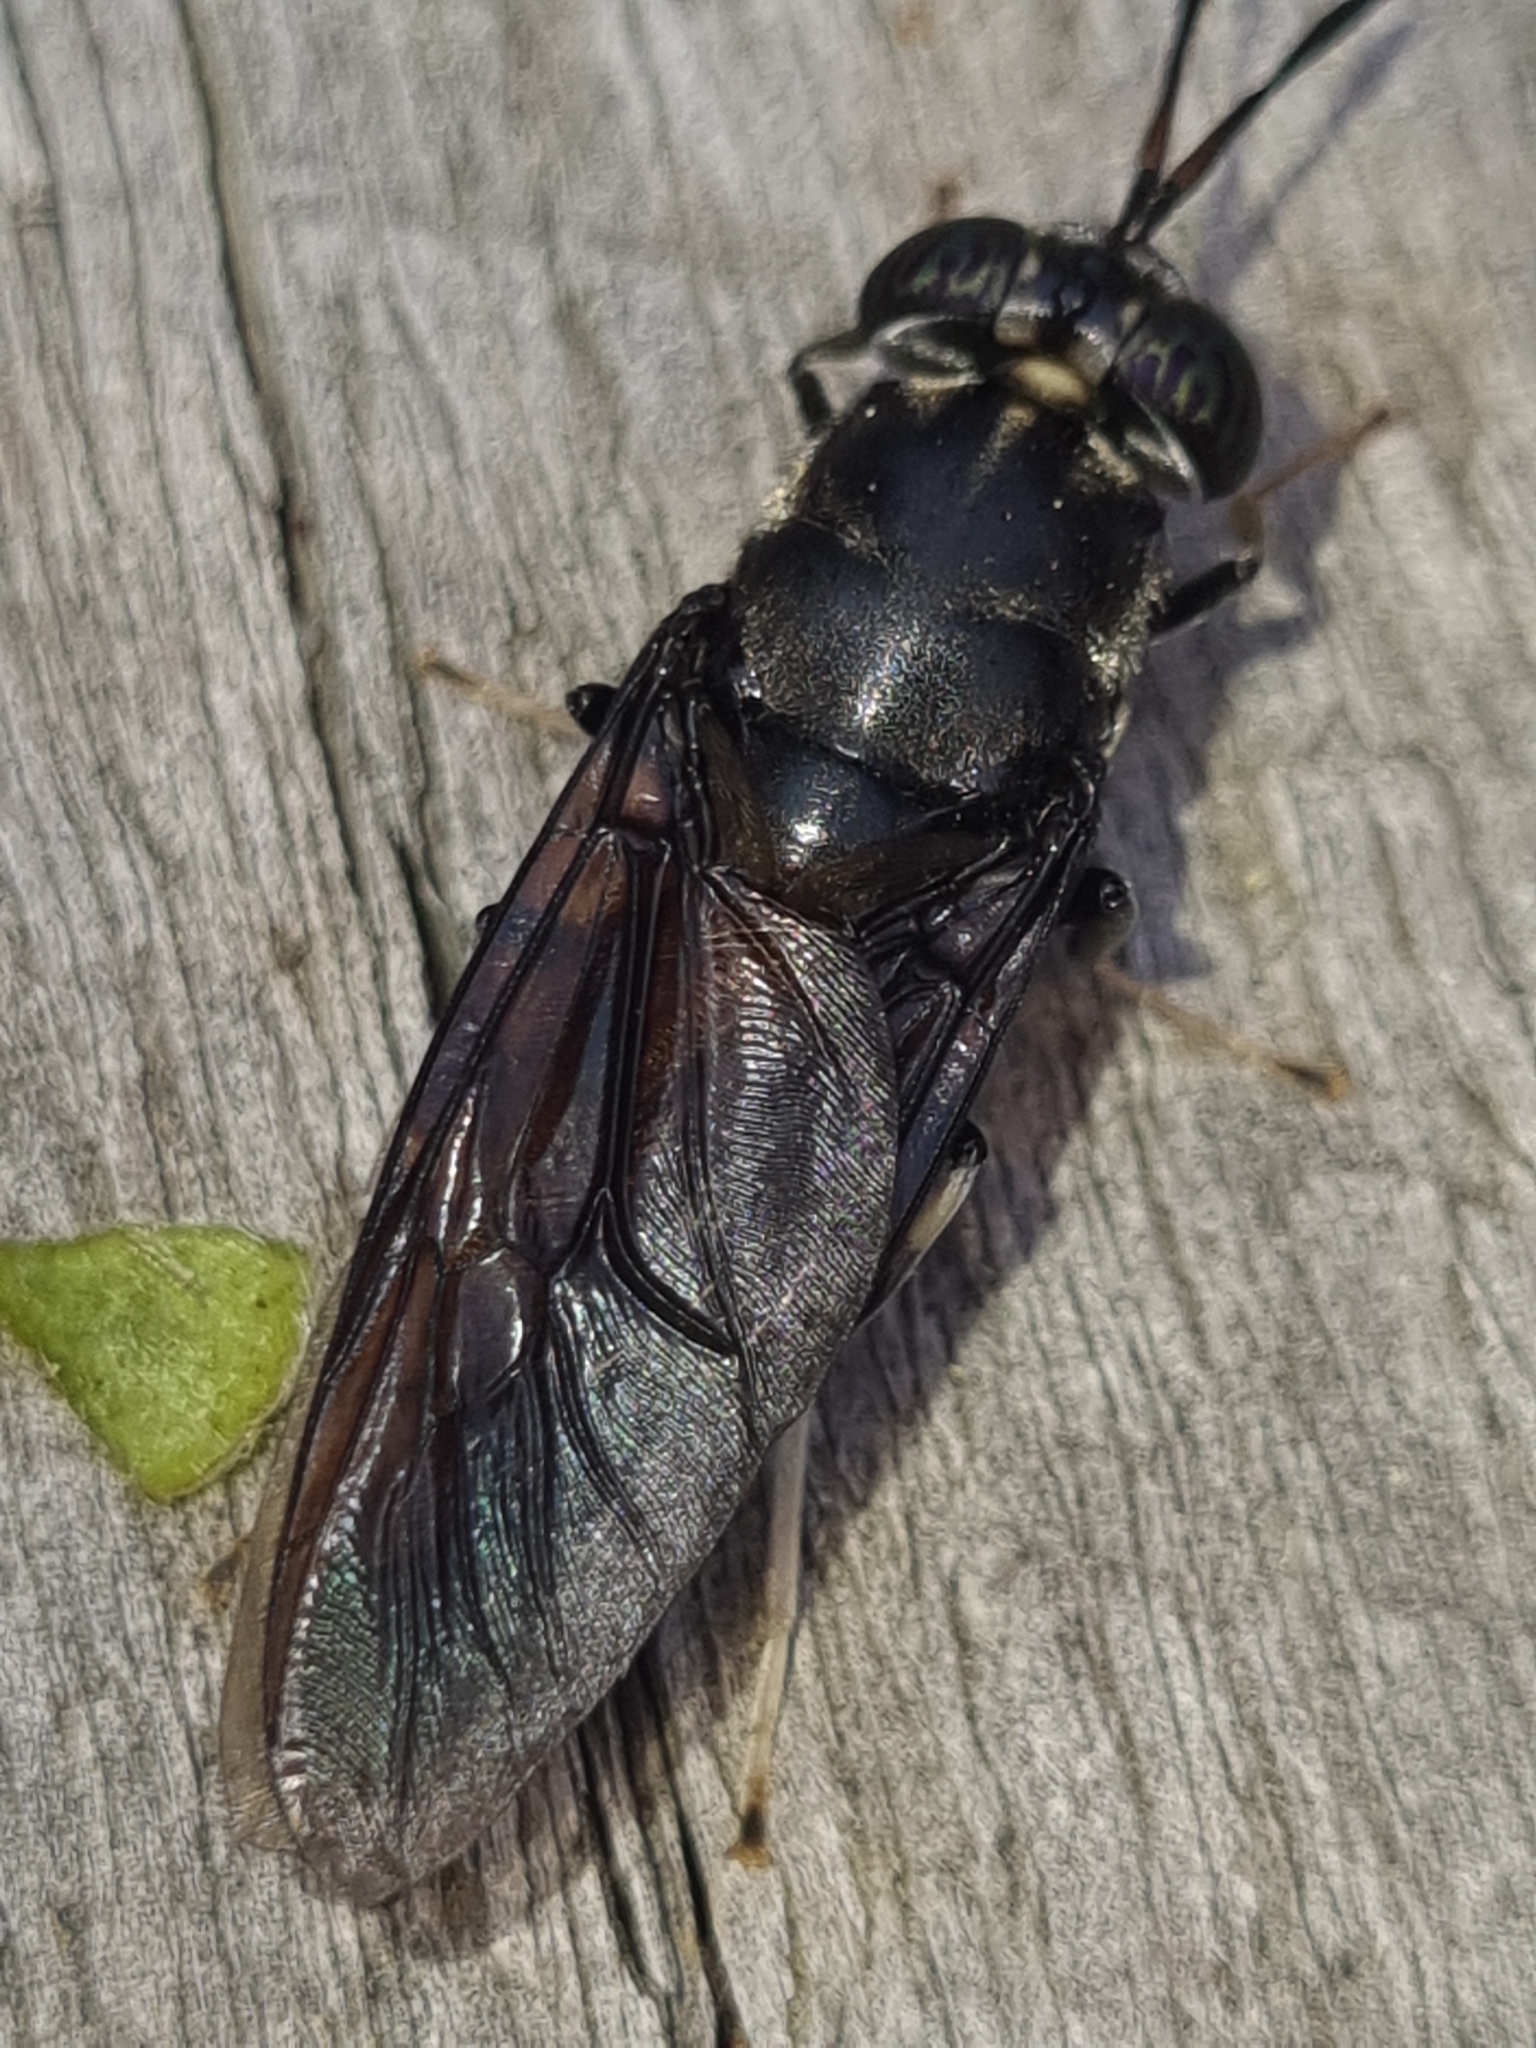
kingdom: Animalia
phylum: Arthropoda
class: Insecta
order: Diptera
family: Stratiomyidae
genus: Hermetia
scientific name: Hermetia illucens
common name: Black soldier fly
